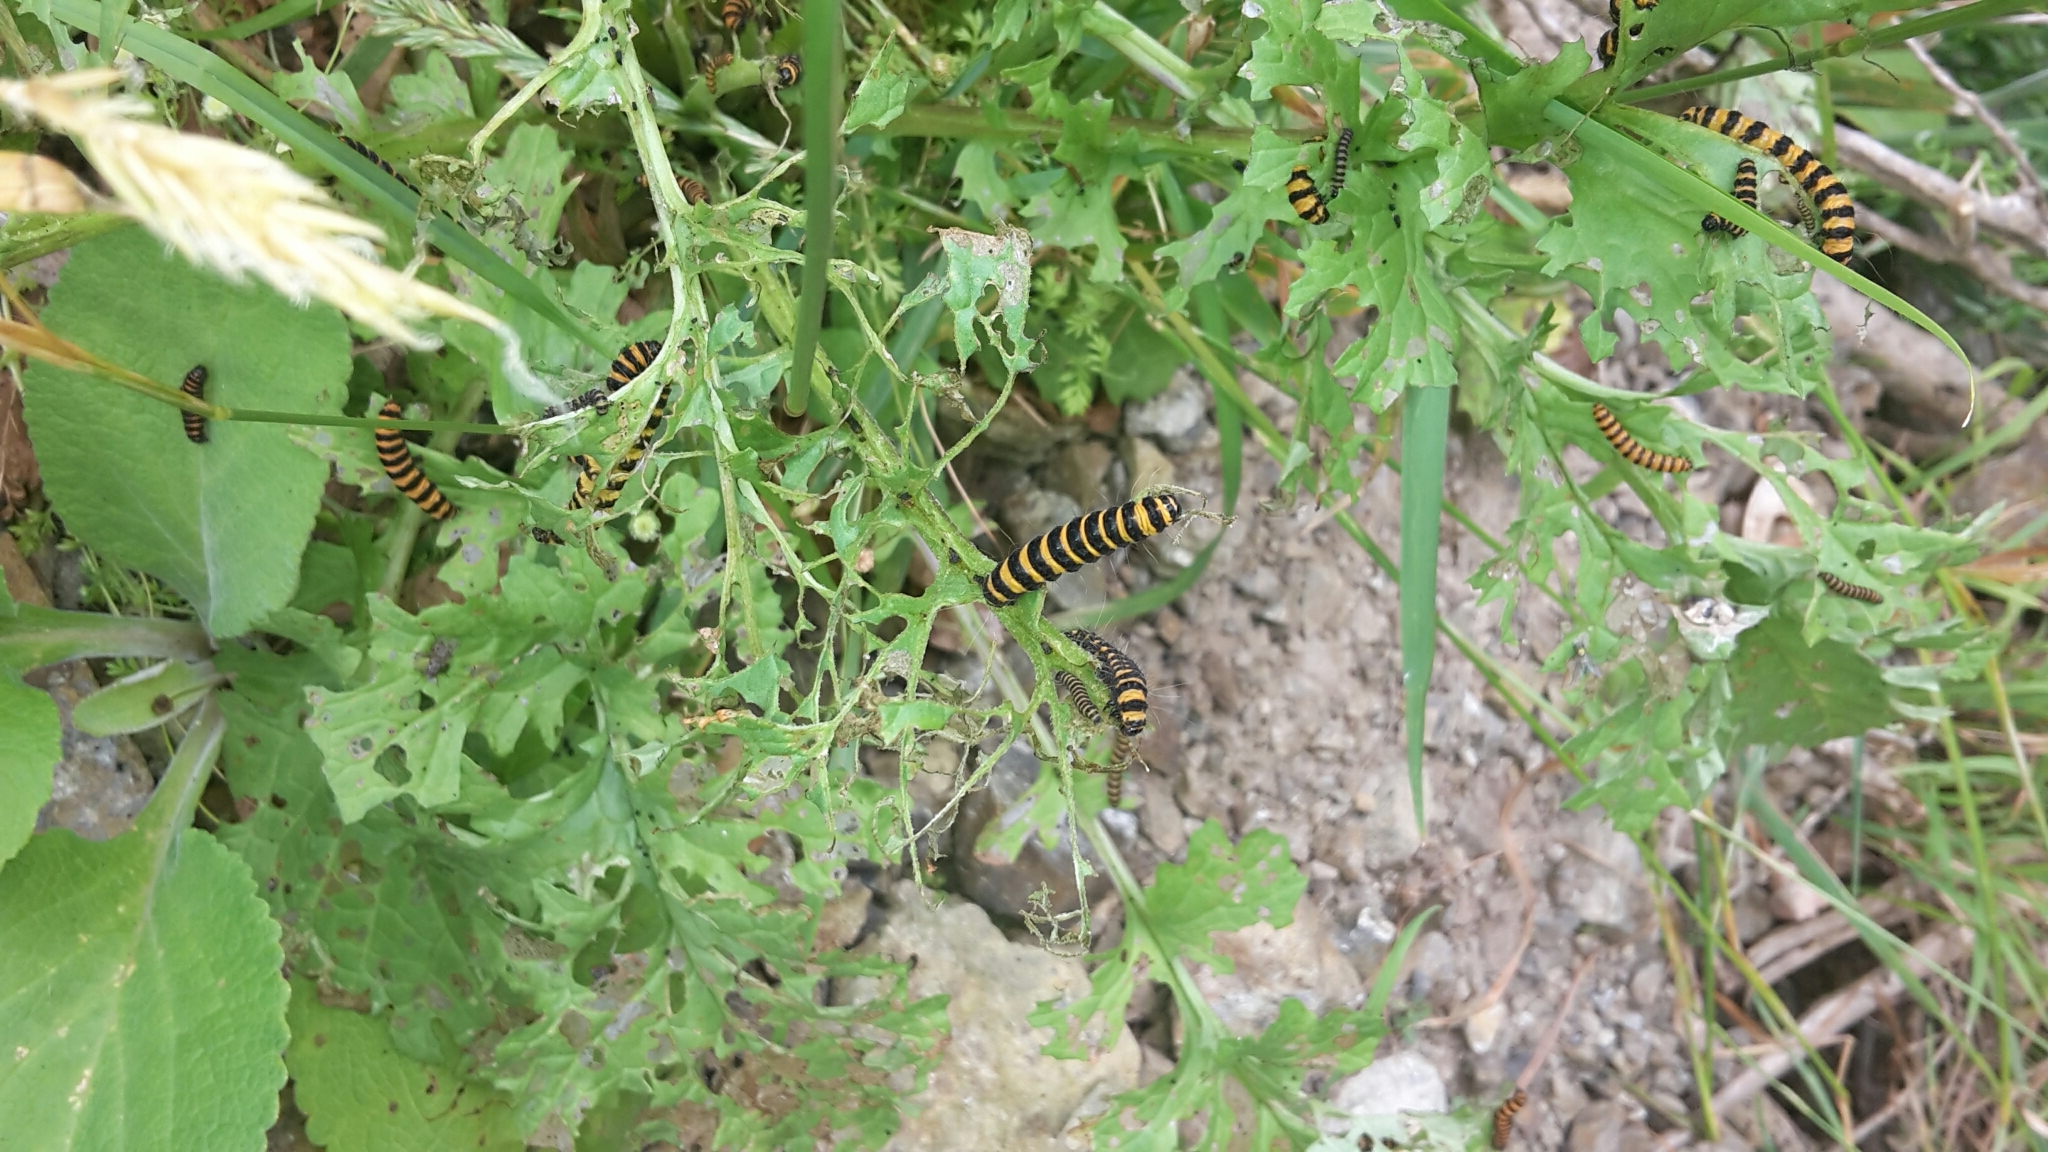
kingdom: Animalia
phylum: Arthropoda
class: Insecta
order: Lepidoptera
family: Erebidae
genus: Tyria
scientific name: Tyria jacobaeae
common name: Cinnabar
